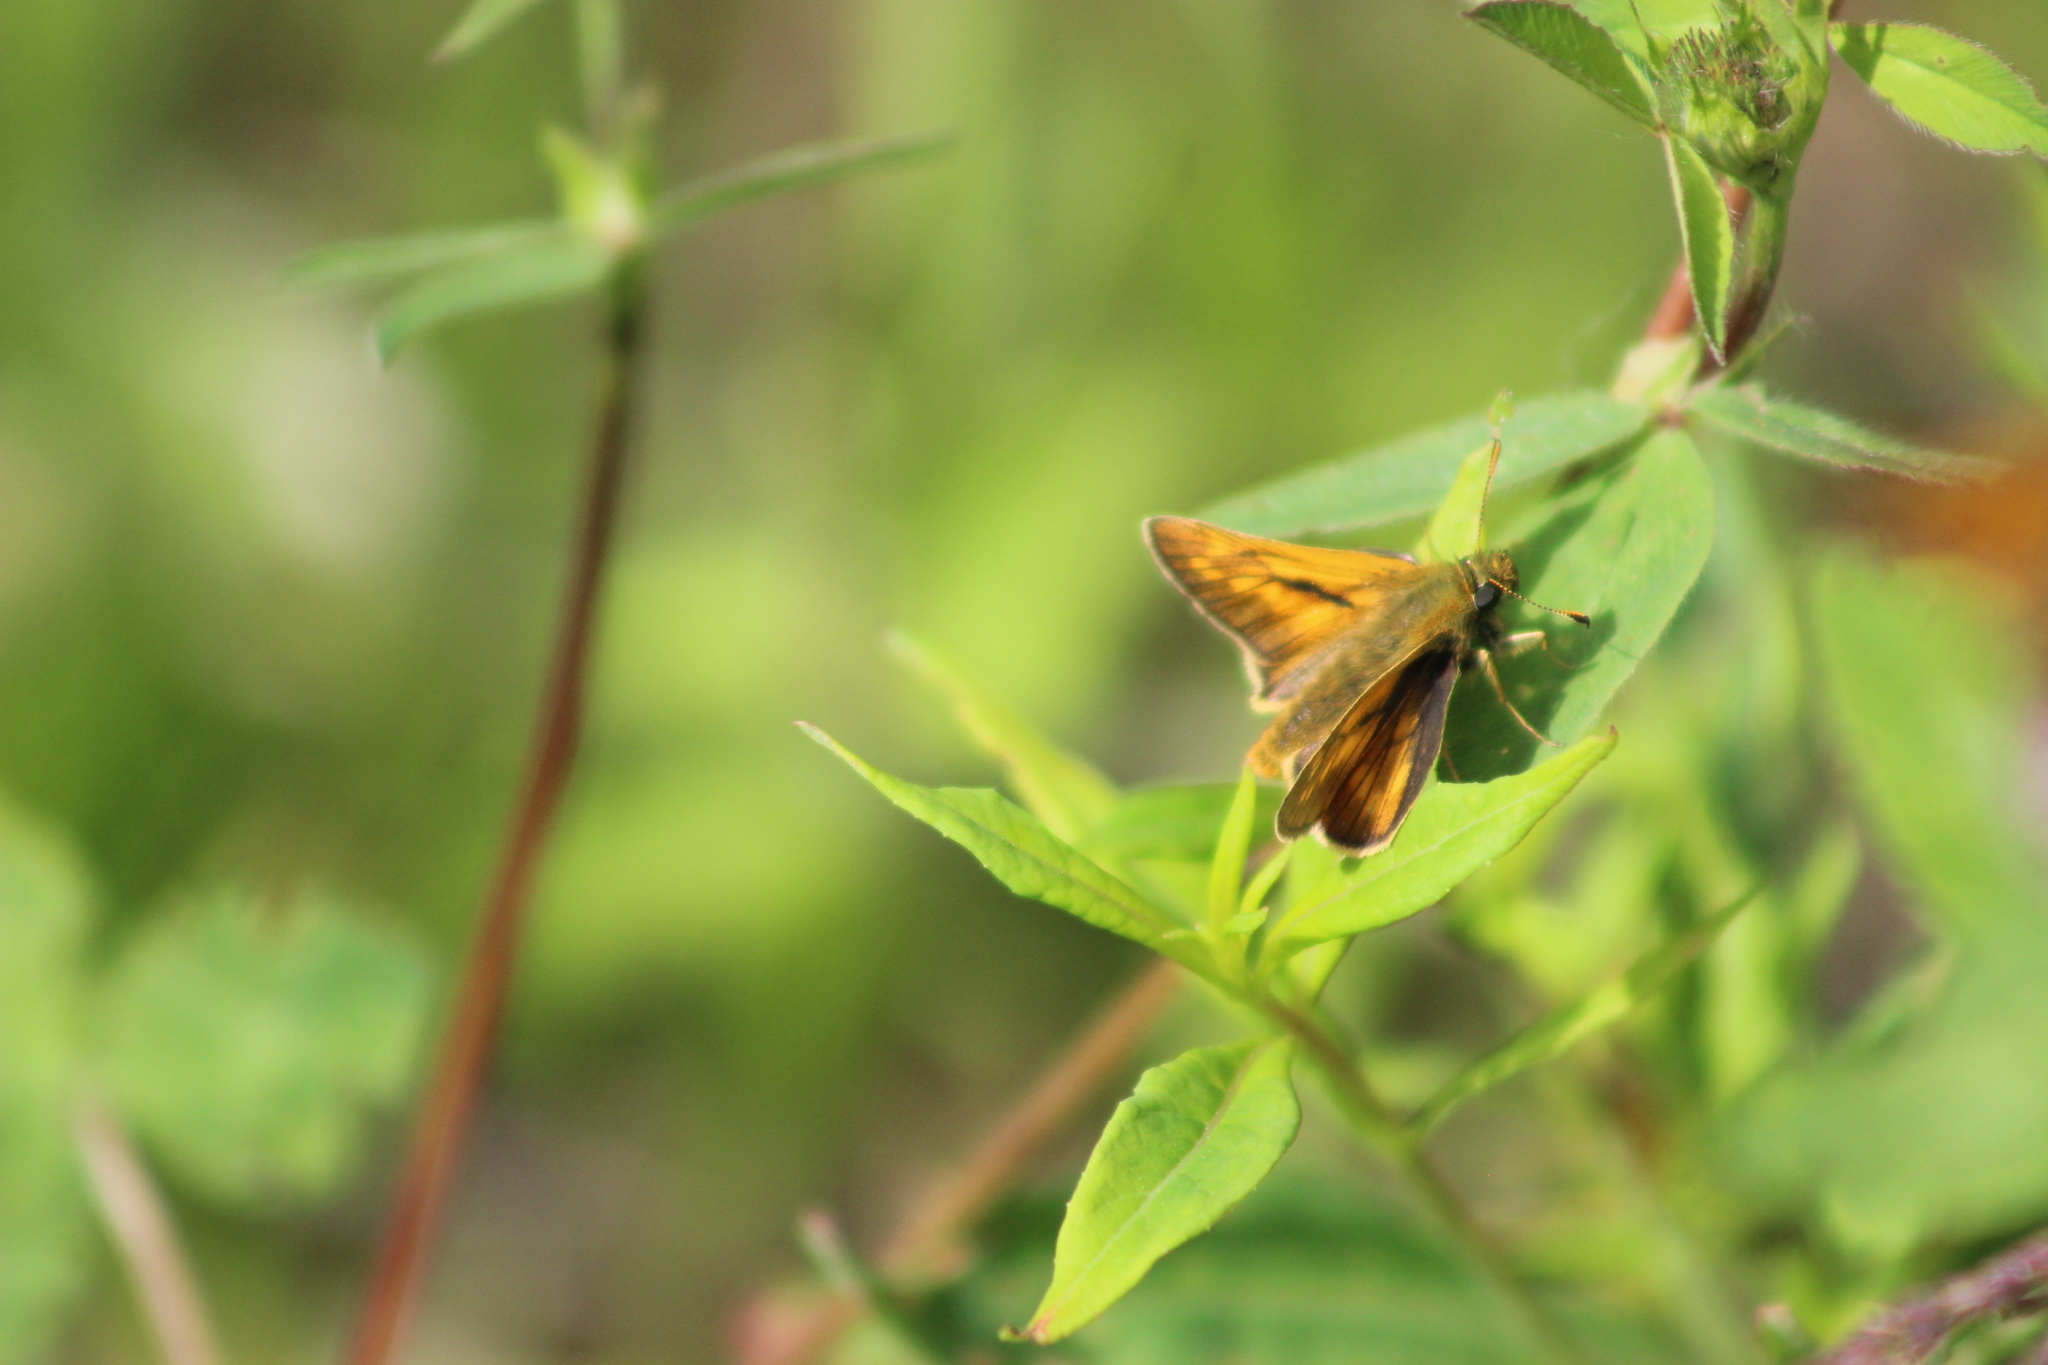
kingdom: Animalia
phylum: Arthropoda
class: Insecta
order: Lepidoptera
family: Hesperiidae
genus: Ochlodes
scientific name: Ochlodes venata
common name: Large skipper
